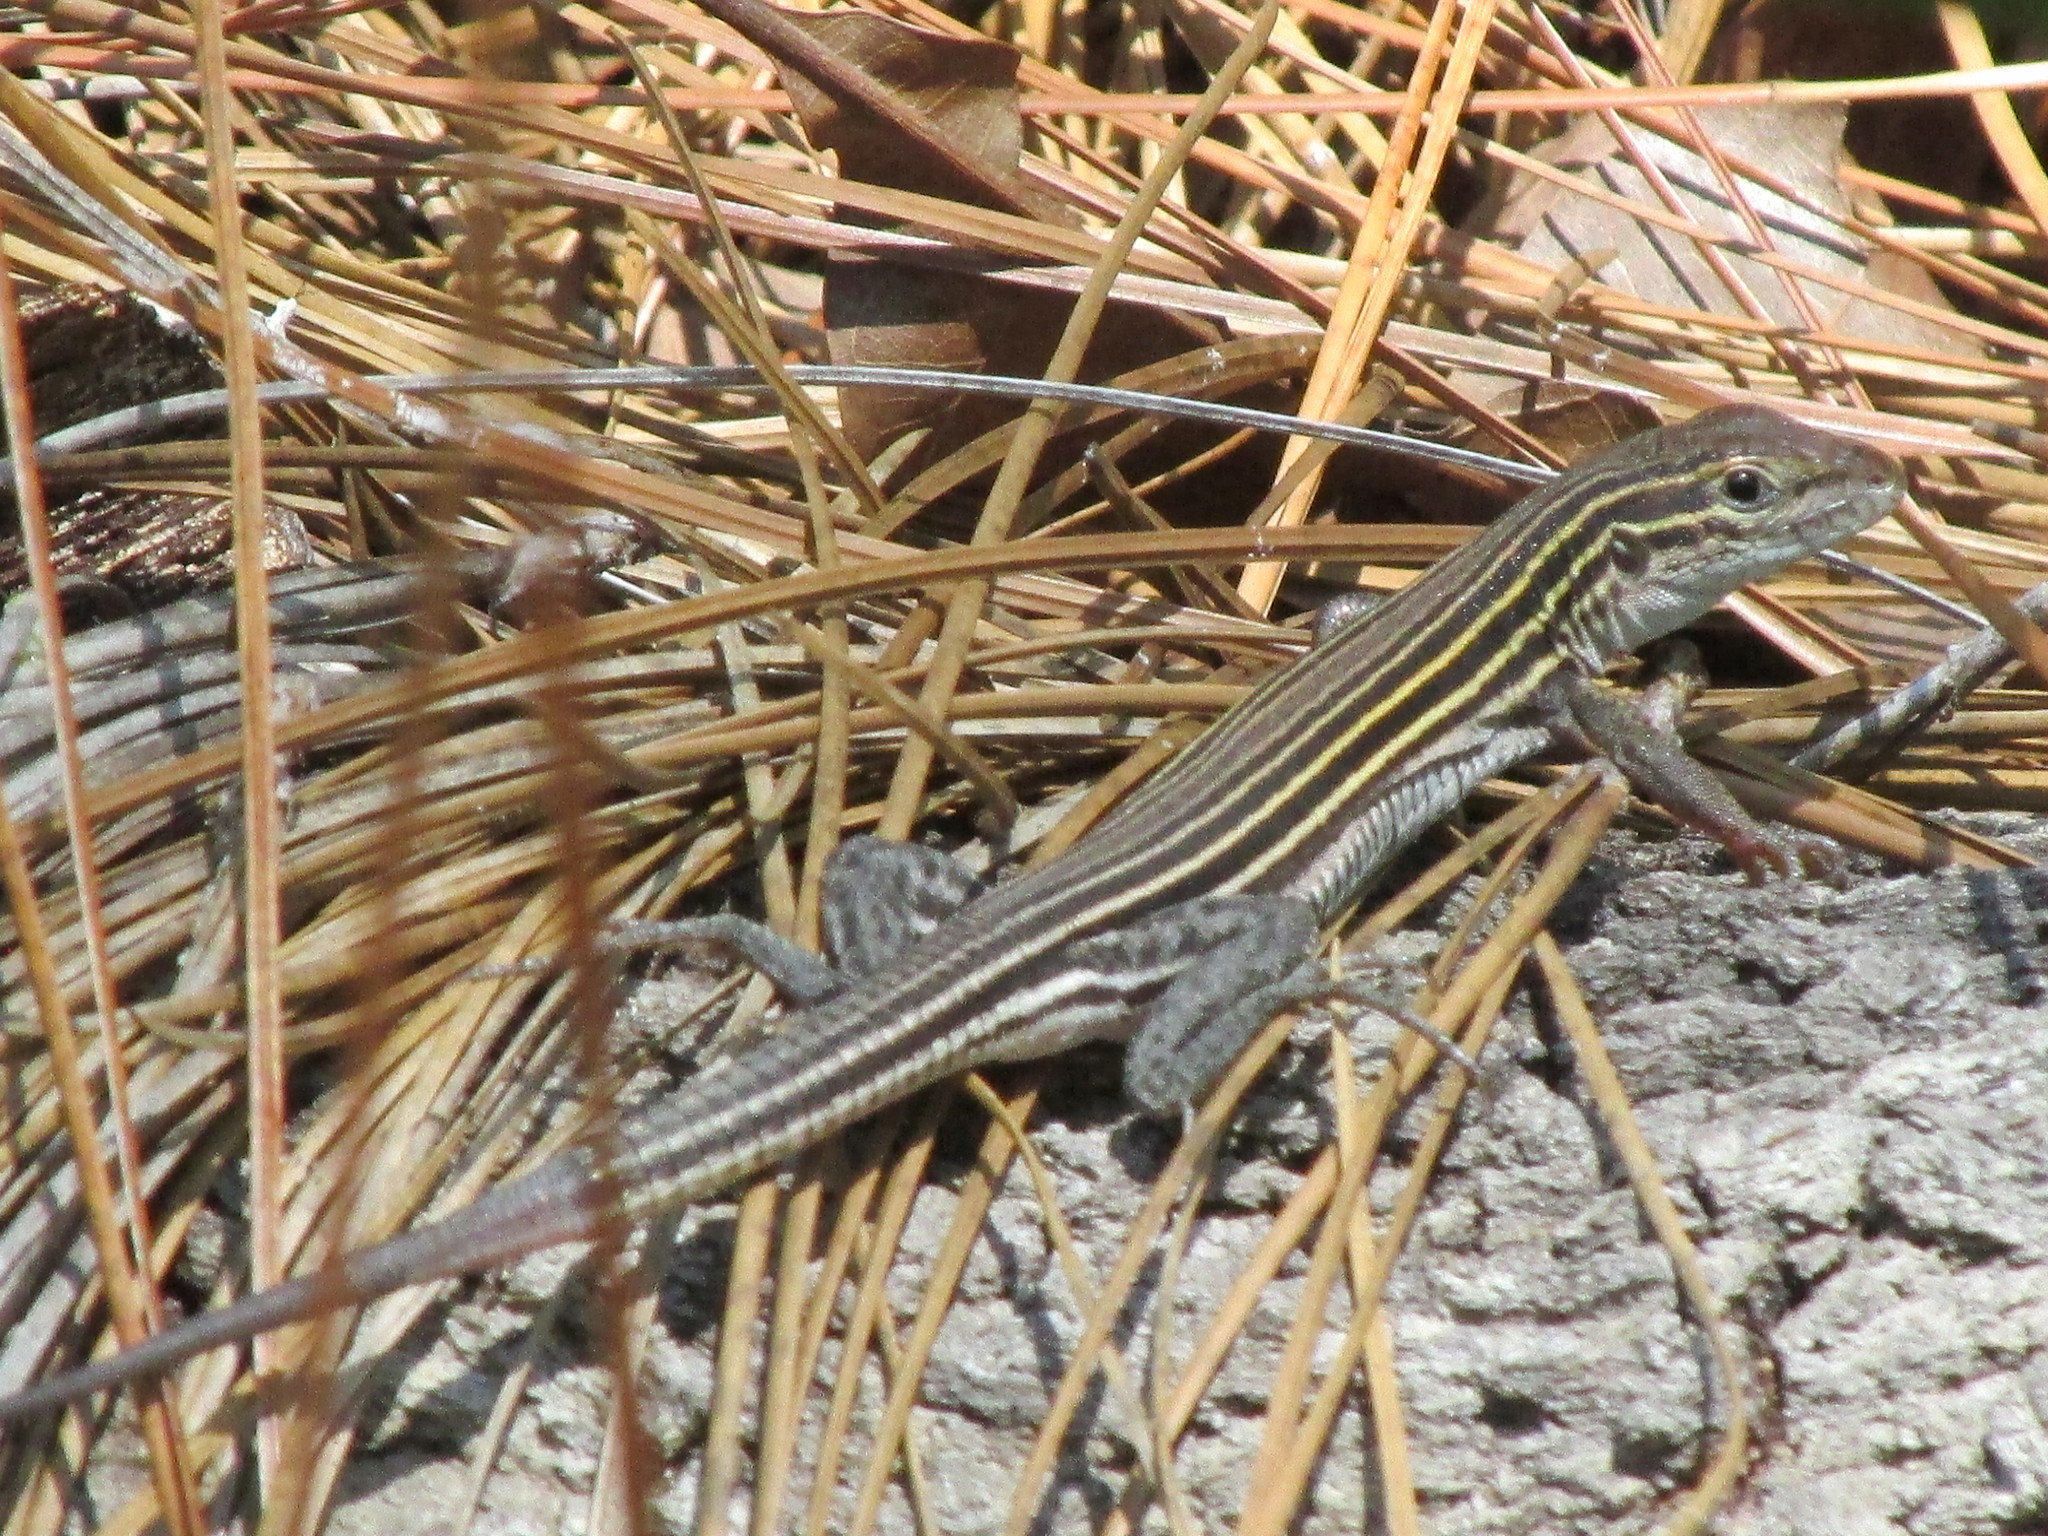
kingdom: Animalia
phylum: Chordata
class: Squamata
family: Teiidae
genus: Aspidoscelis
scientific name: Aspidoscelis sexlineatus
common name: Six-lined racerunner
